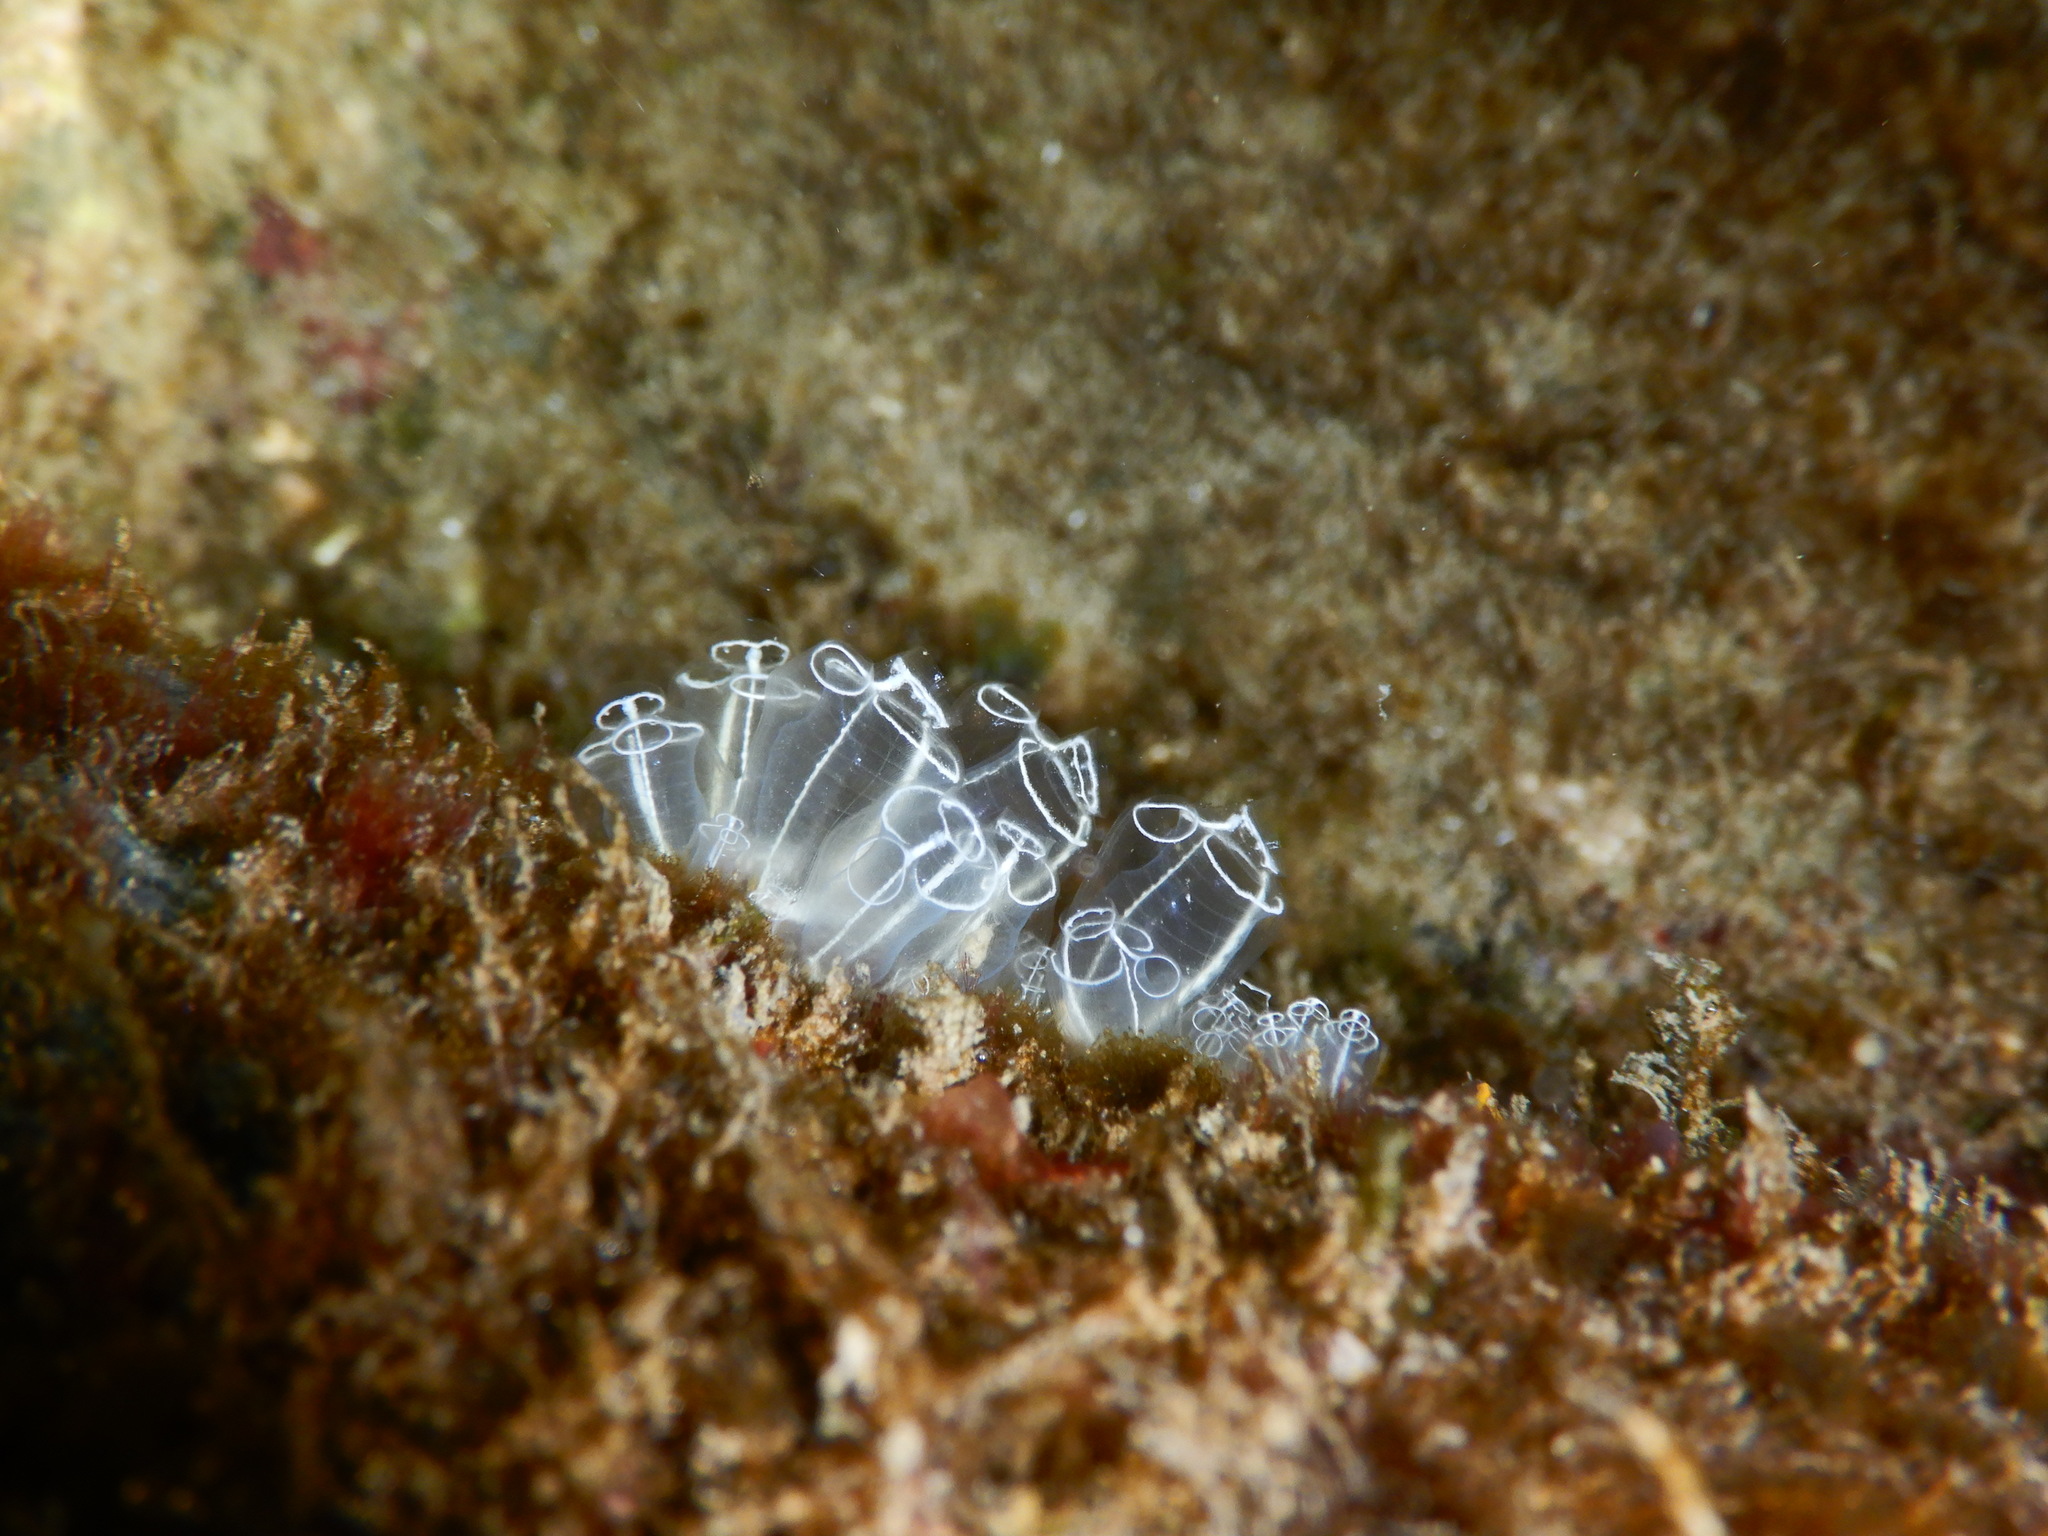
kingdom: Animalia
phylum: Chordata
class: Ascidiacea
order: Aplousobranchia
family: Clavelinidae
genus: Clavelina
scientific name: Clavelina lepadiformis
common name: Light bulb tunicate
